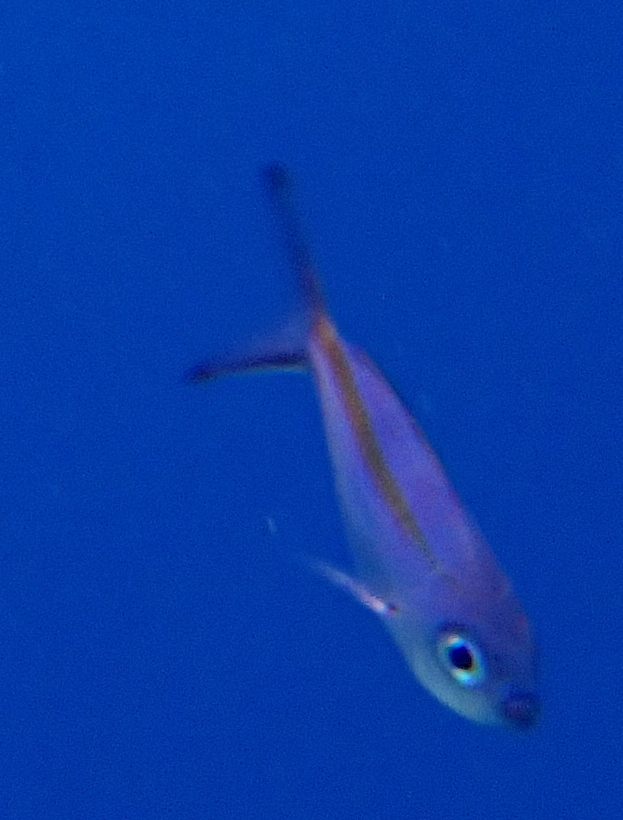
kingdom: Animalia
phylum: Chordata
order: Perciformes
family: Caesionidae
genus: Caesio
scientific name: Caesio caerulaurea
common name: Blue and gold fusilier
